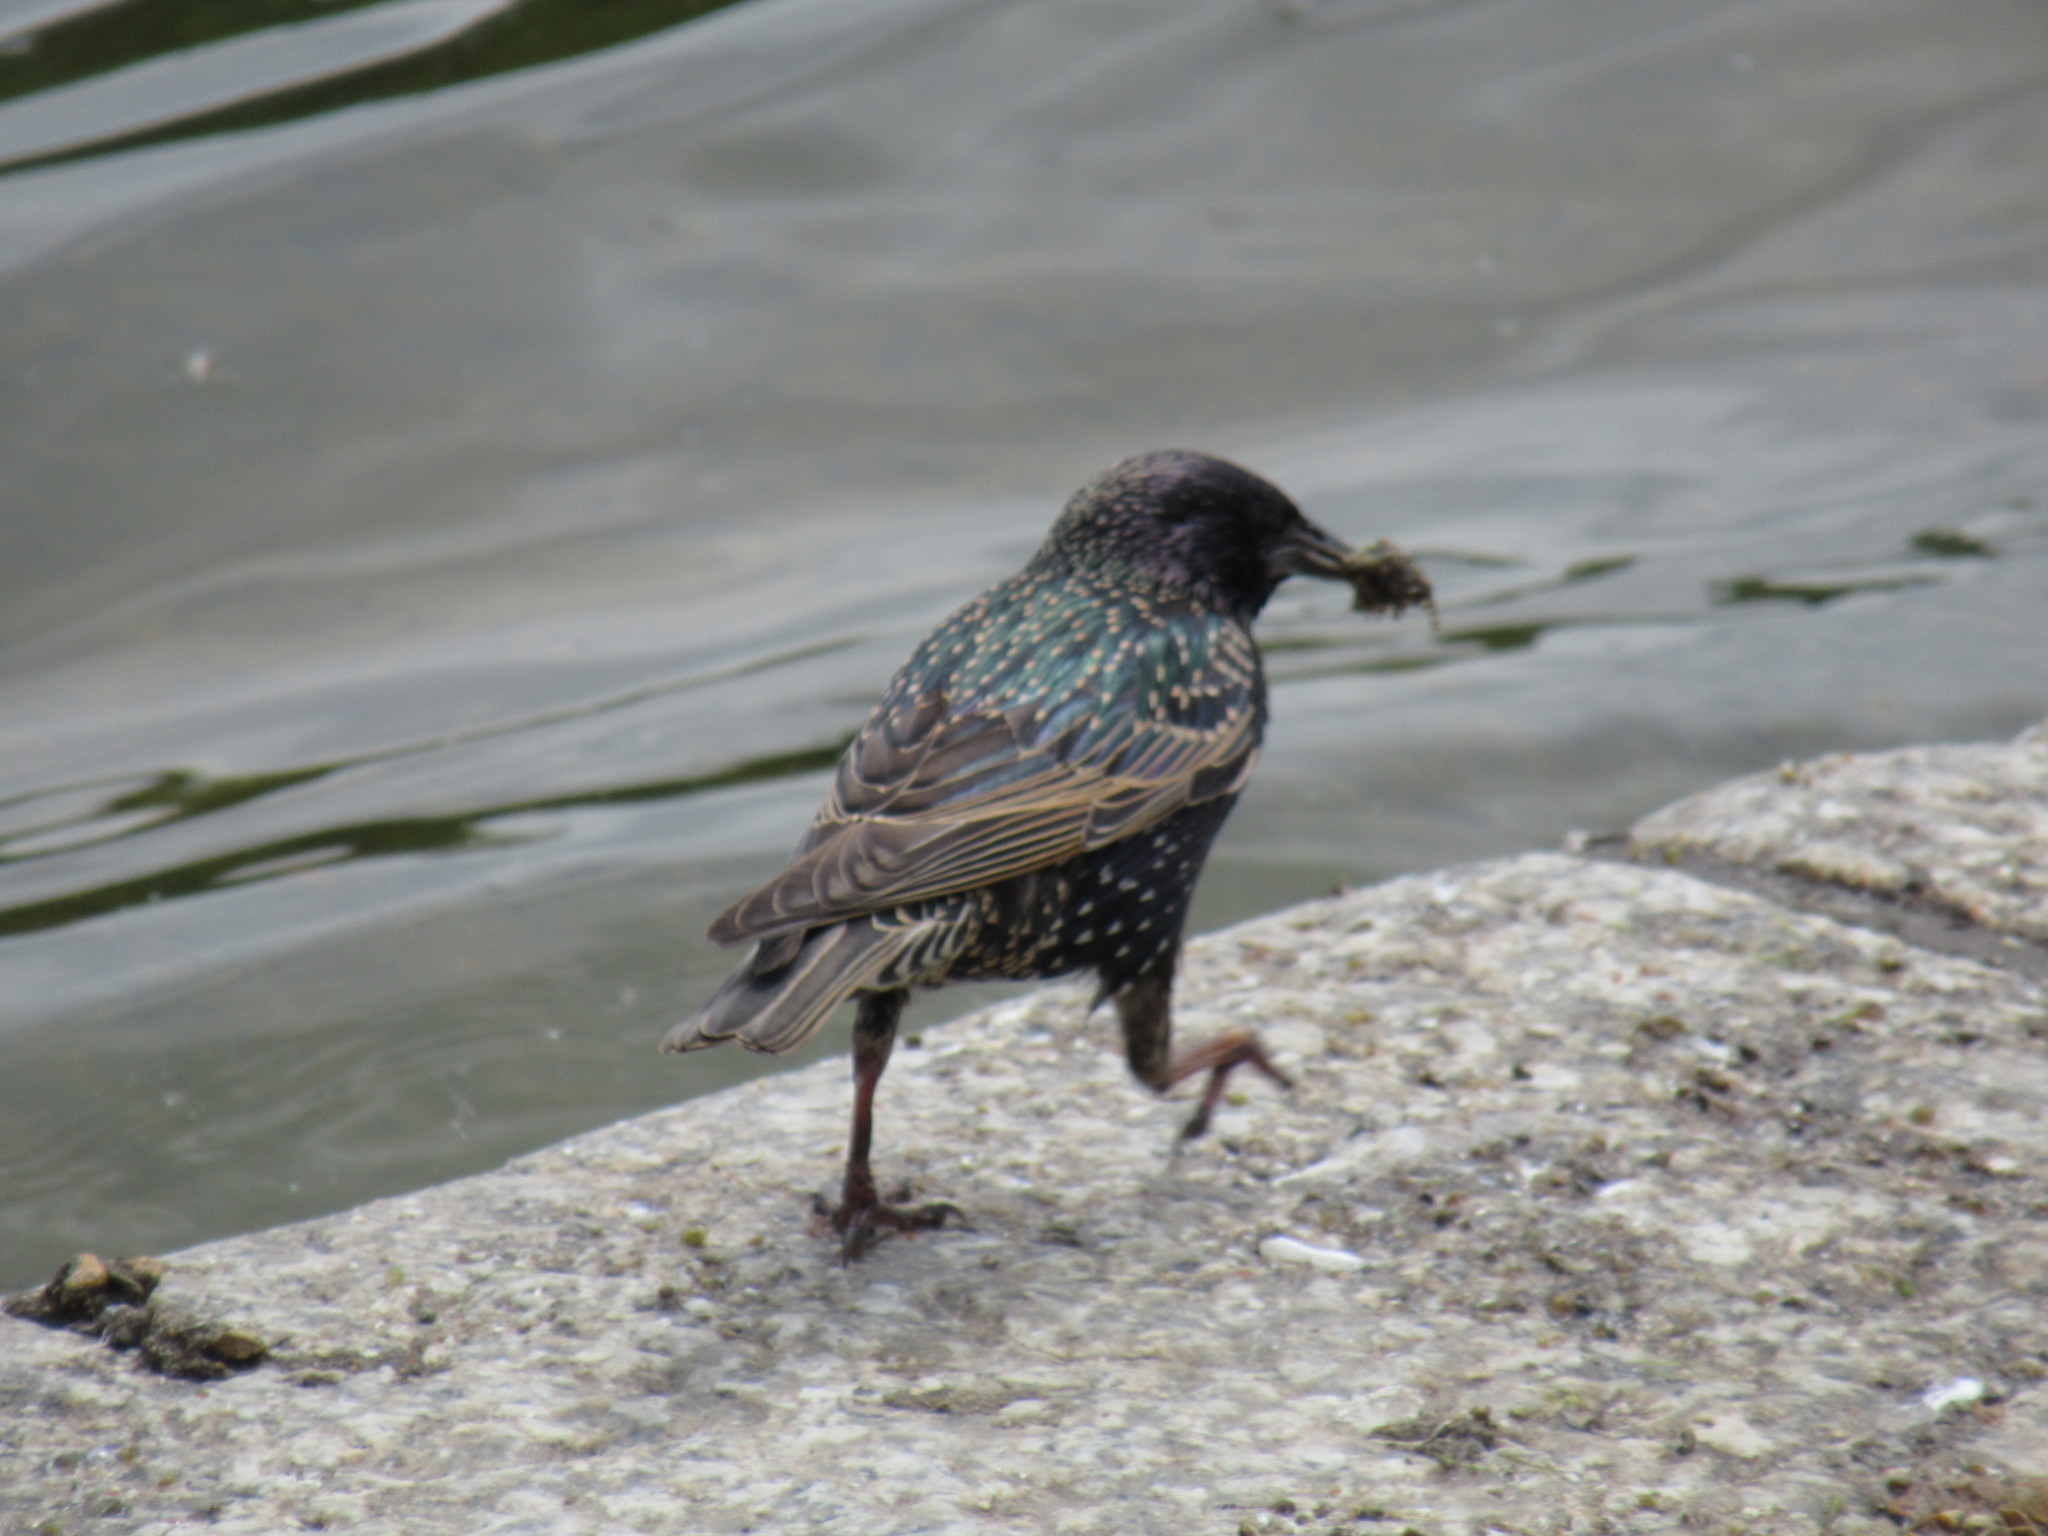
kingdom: Animalia
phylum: Chordata
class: Aves
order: Passeriformes
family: Sturnidae
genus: Sturnus
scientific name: Sturnus vulgaris
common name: Common starling
